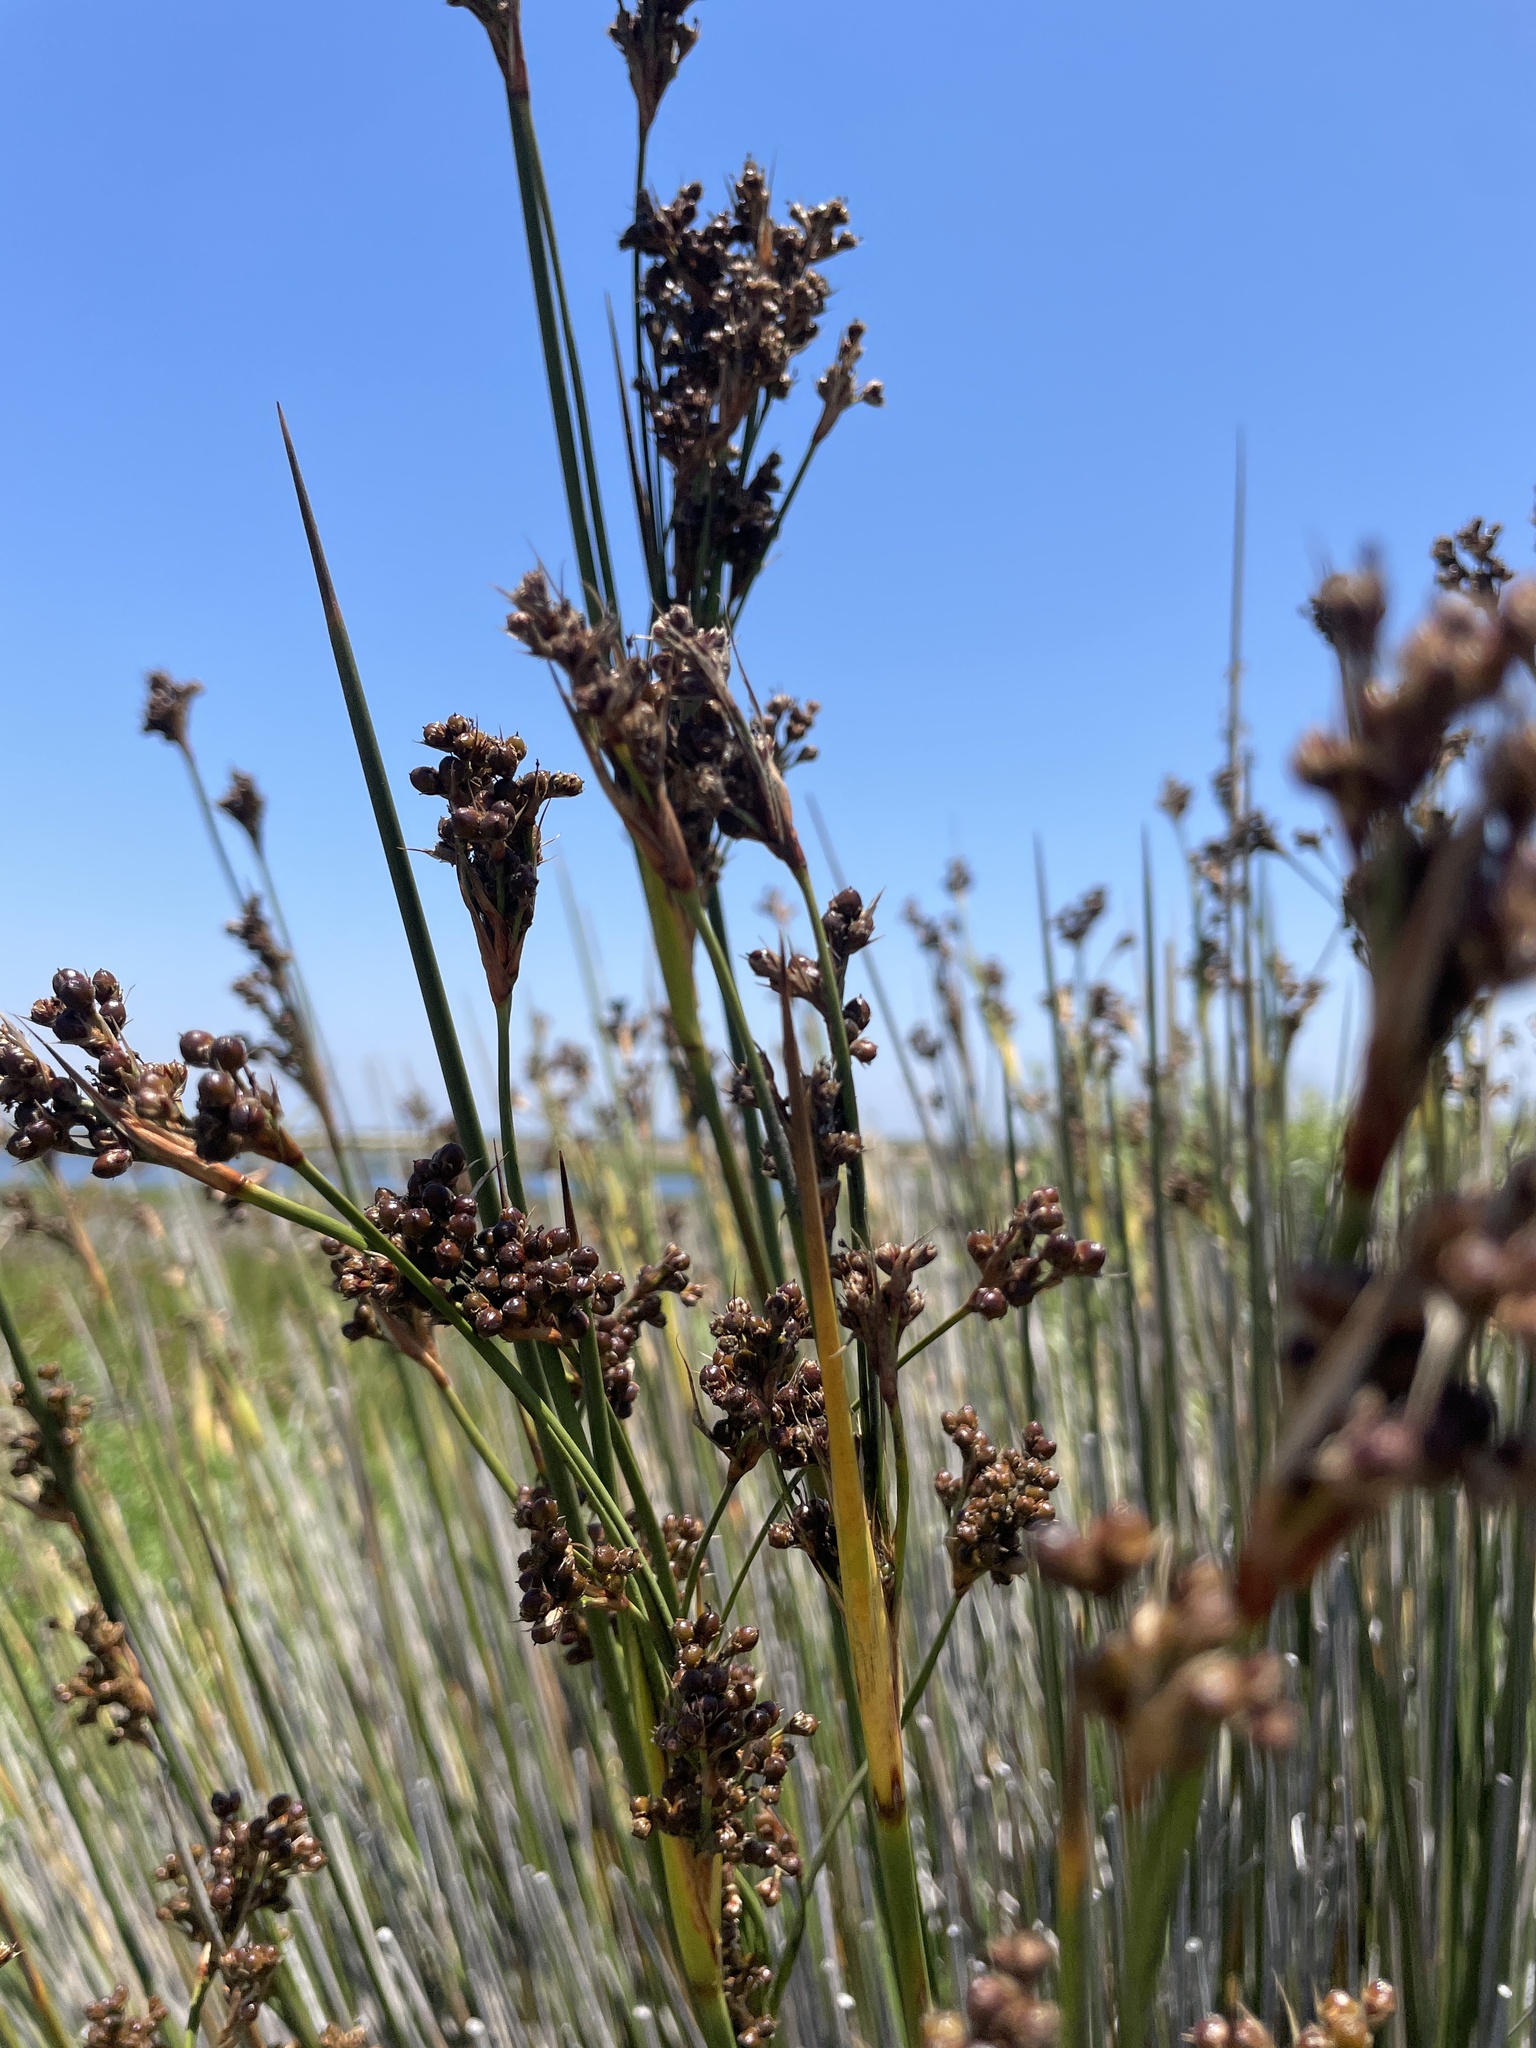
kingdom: Plantae
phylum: Tracheophyta
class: Liliopsida
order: Poales
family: Juncaceae
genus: Juncus
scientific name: Juncus acutus
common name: Sharp rush
